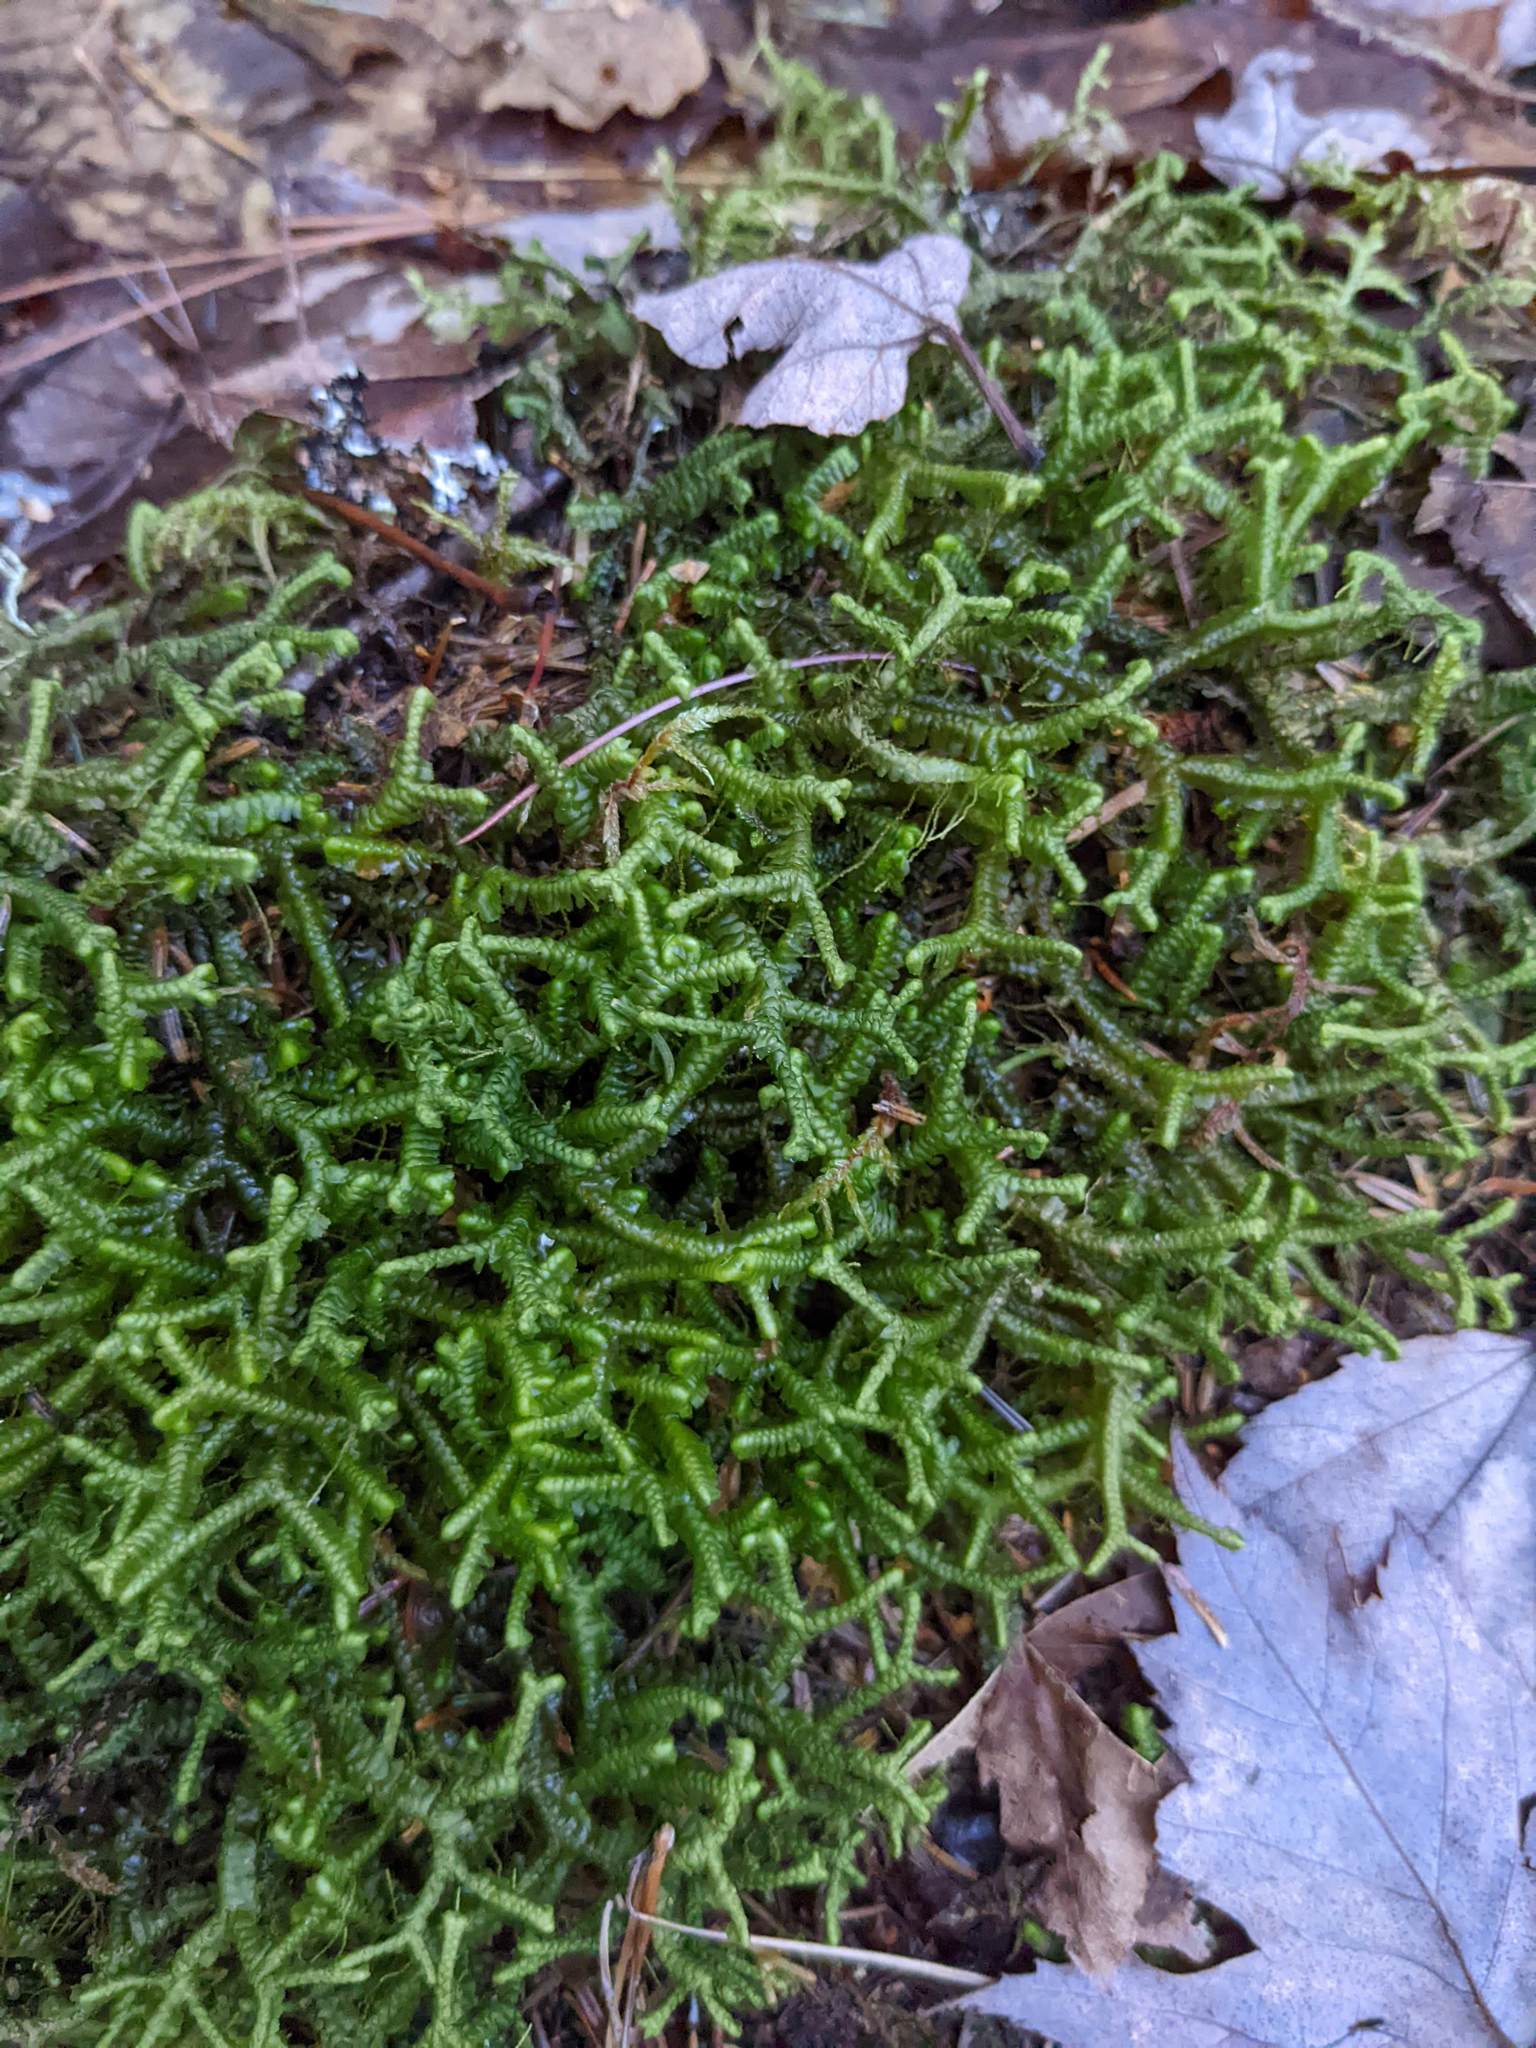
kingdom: Plantae
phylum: Marchantiophyta
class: Jungermanniopsida
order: Jungermanniales
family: Lepidoziaceae
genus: Bazzania
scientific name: Bazzania trilobata
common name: Three-lobed whipwort
